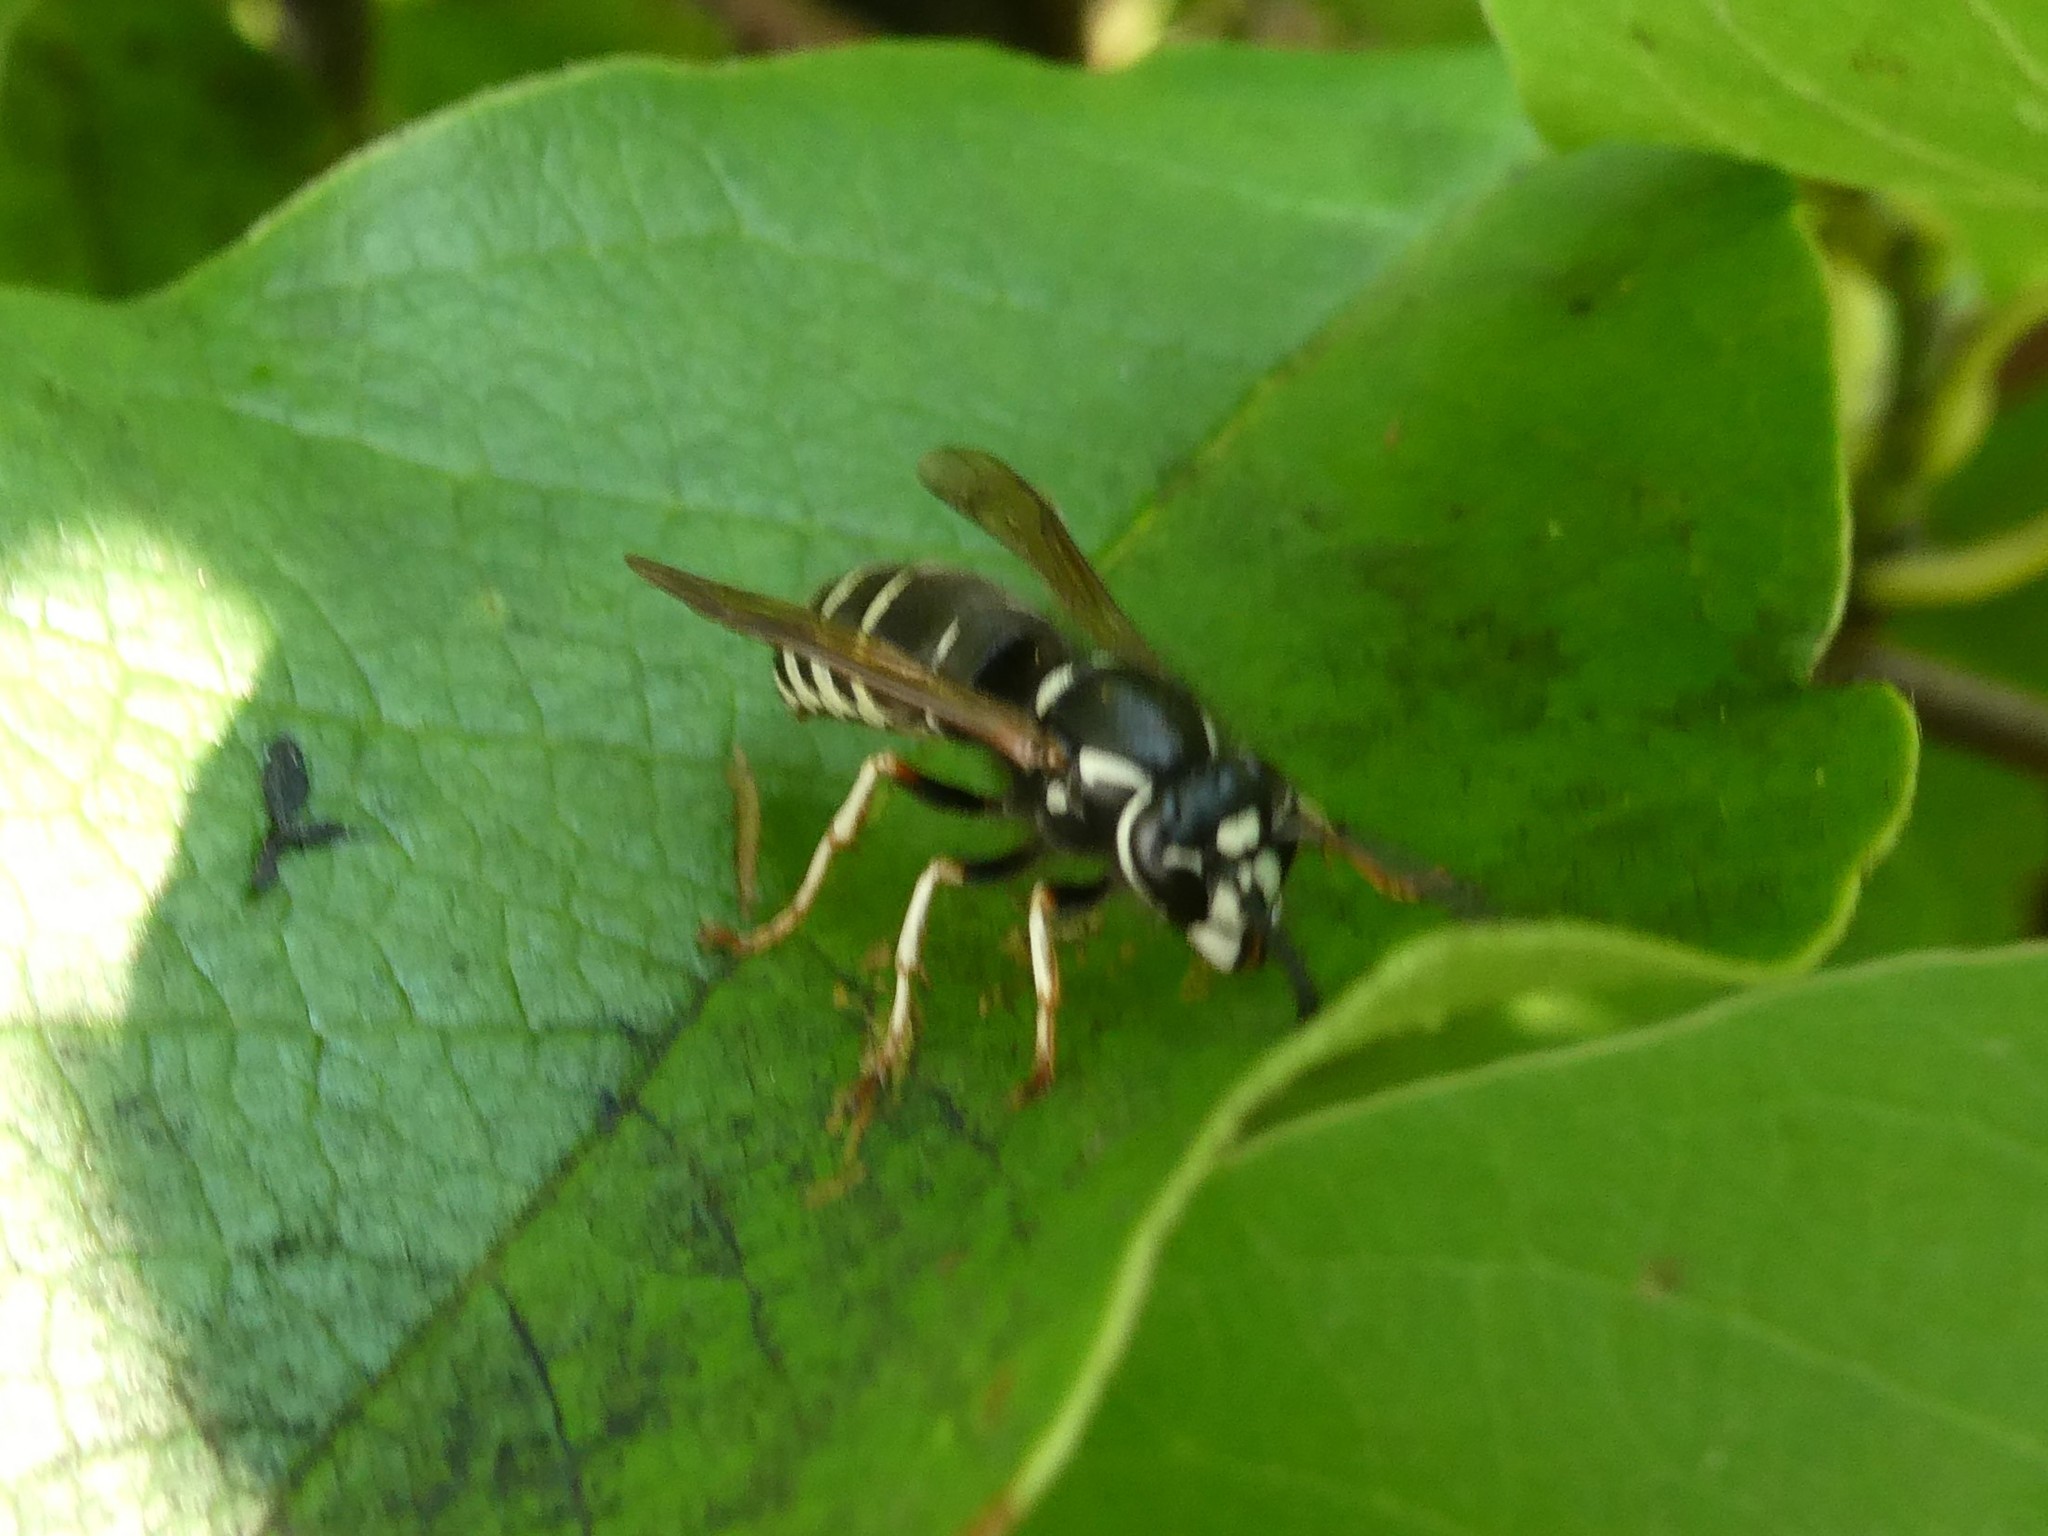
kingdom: Animalia
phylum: Arthropoda
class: Insecta
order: Hymenoptera
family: Vespidae
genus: Vespula
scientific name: Vespula consobrina
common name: Blackjacket
